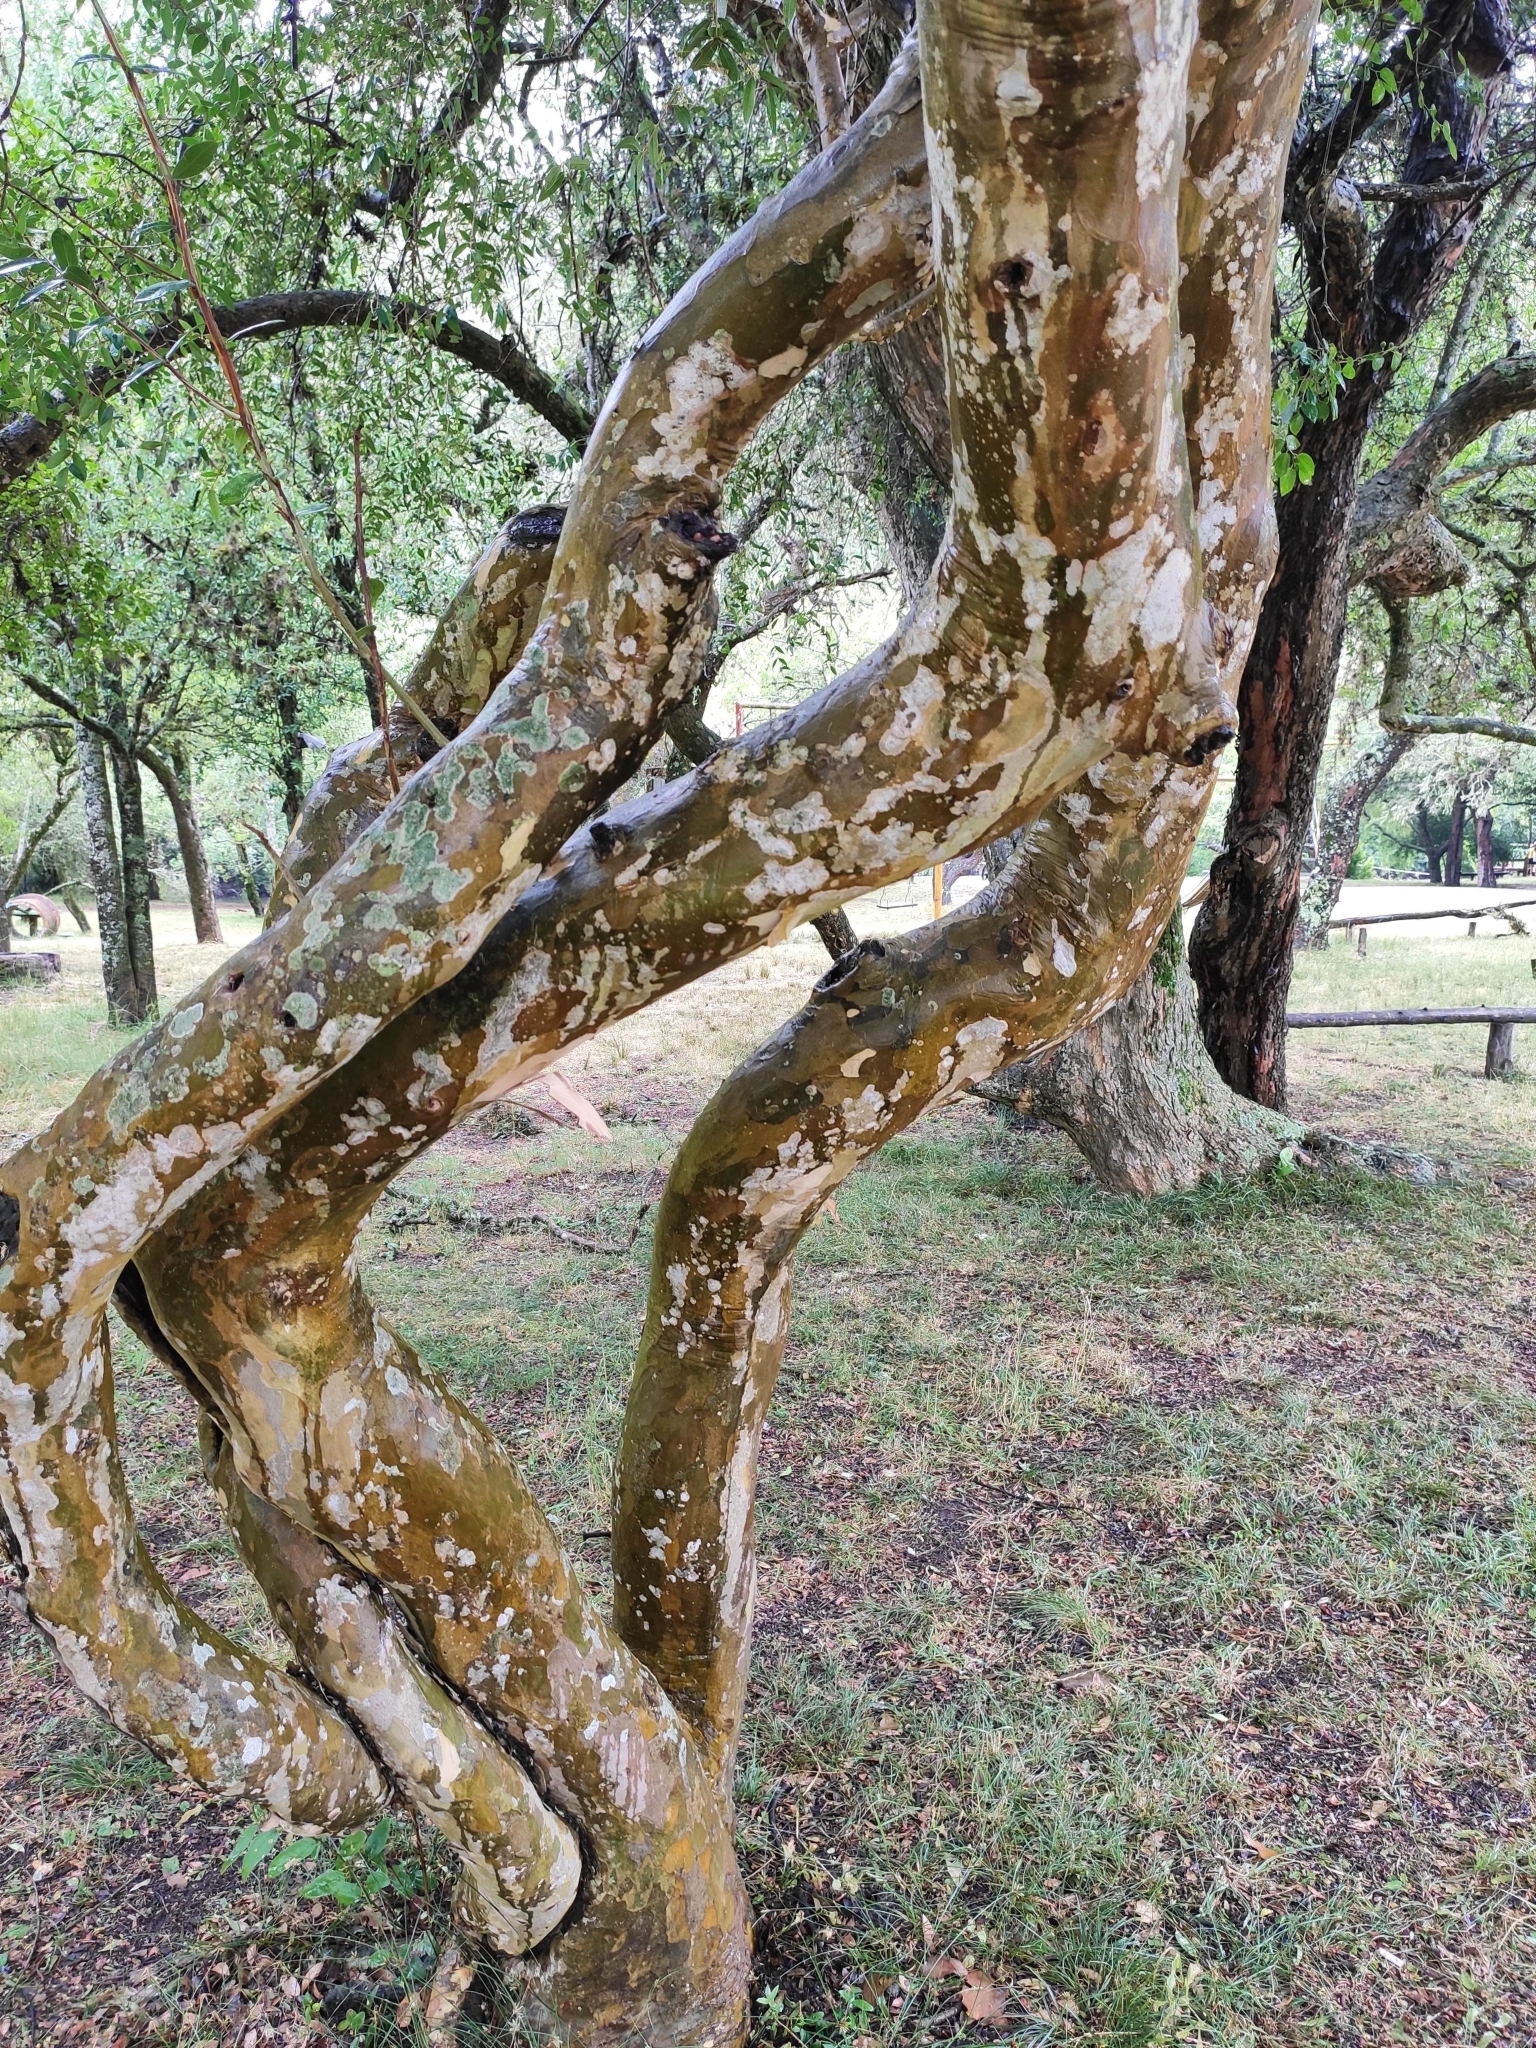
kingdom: Plantae
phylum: Tracheophyta
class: Magnoliopsida
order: Myrtales
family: Myrtaceae
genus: Blepharocalyx
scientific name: Blepharocalyx salicifolius
